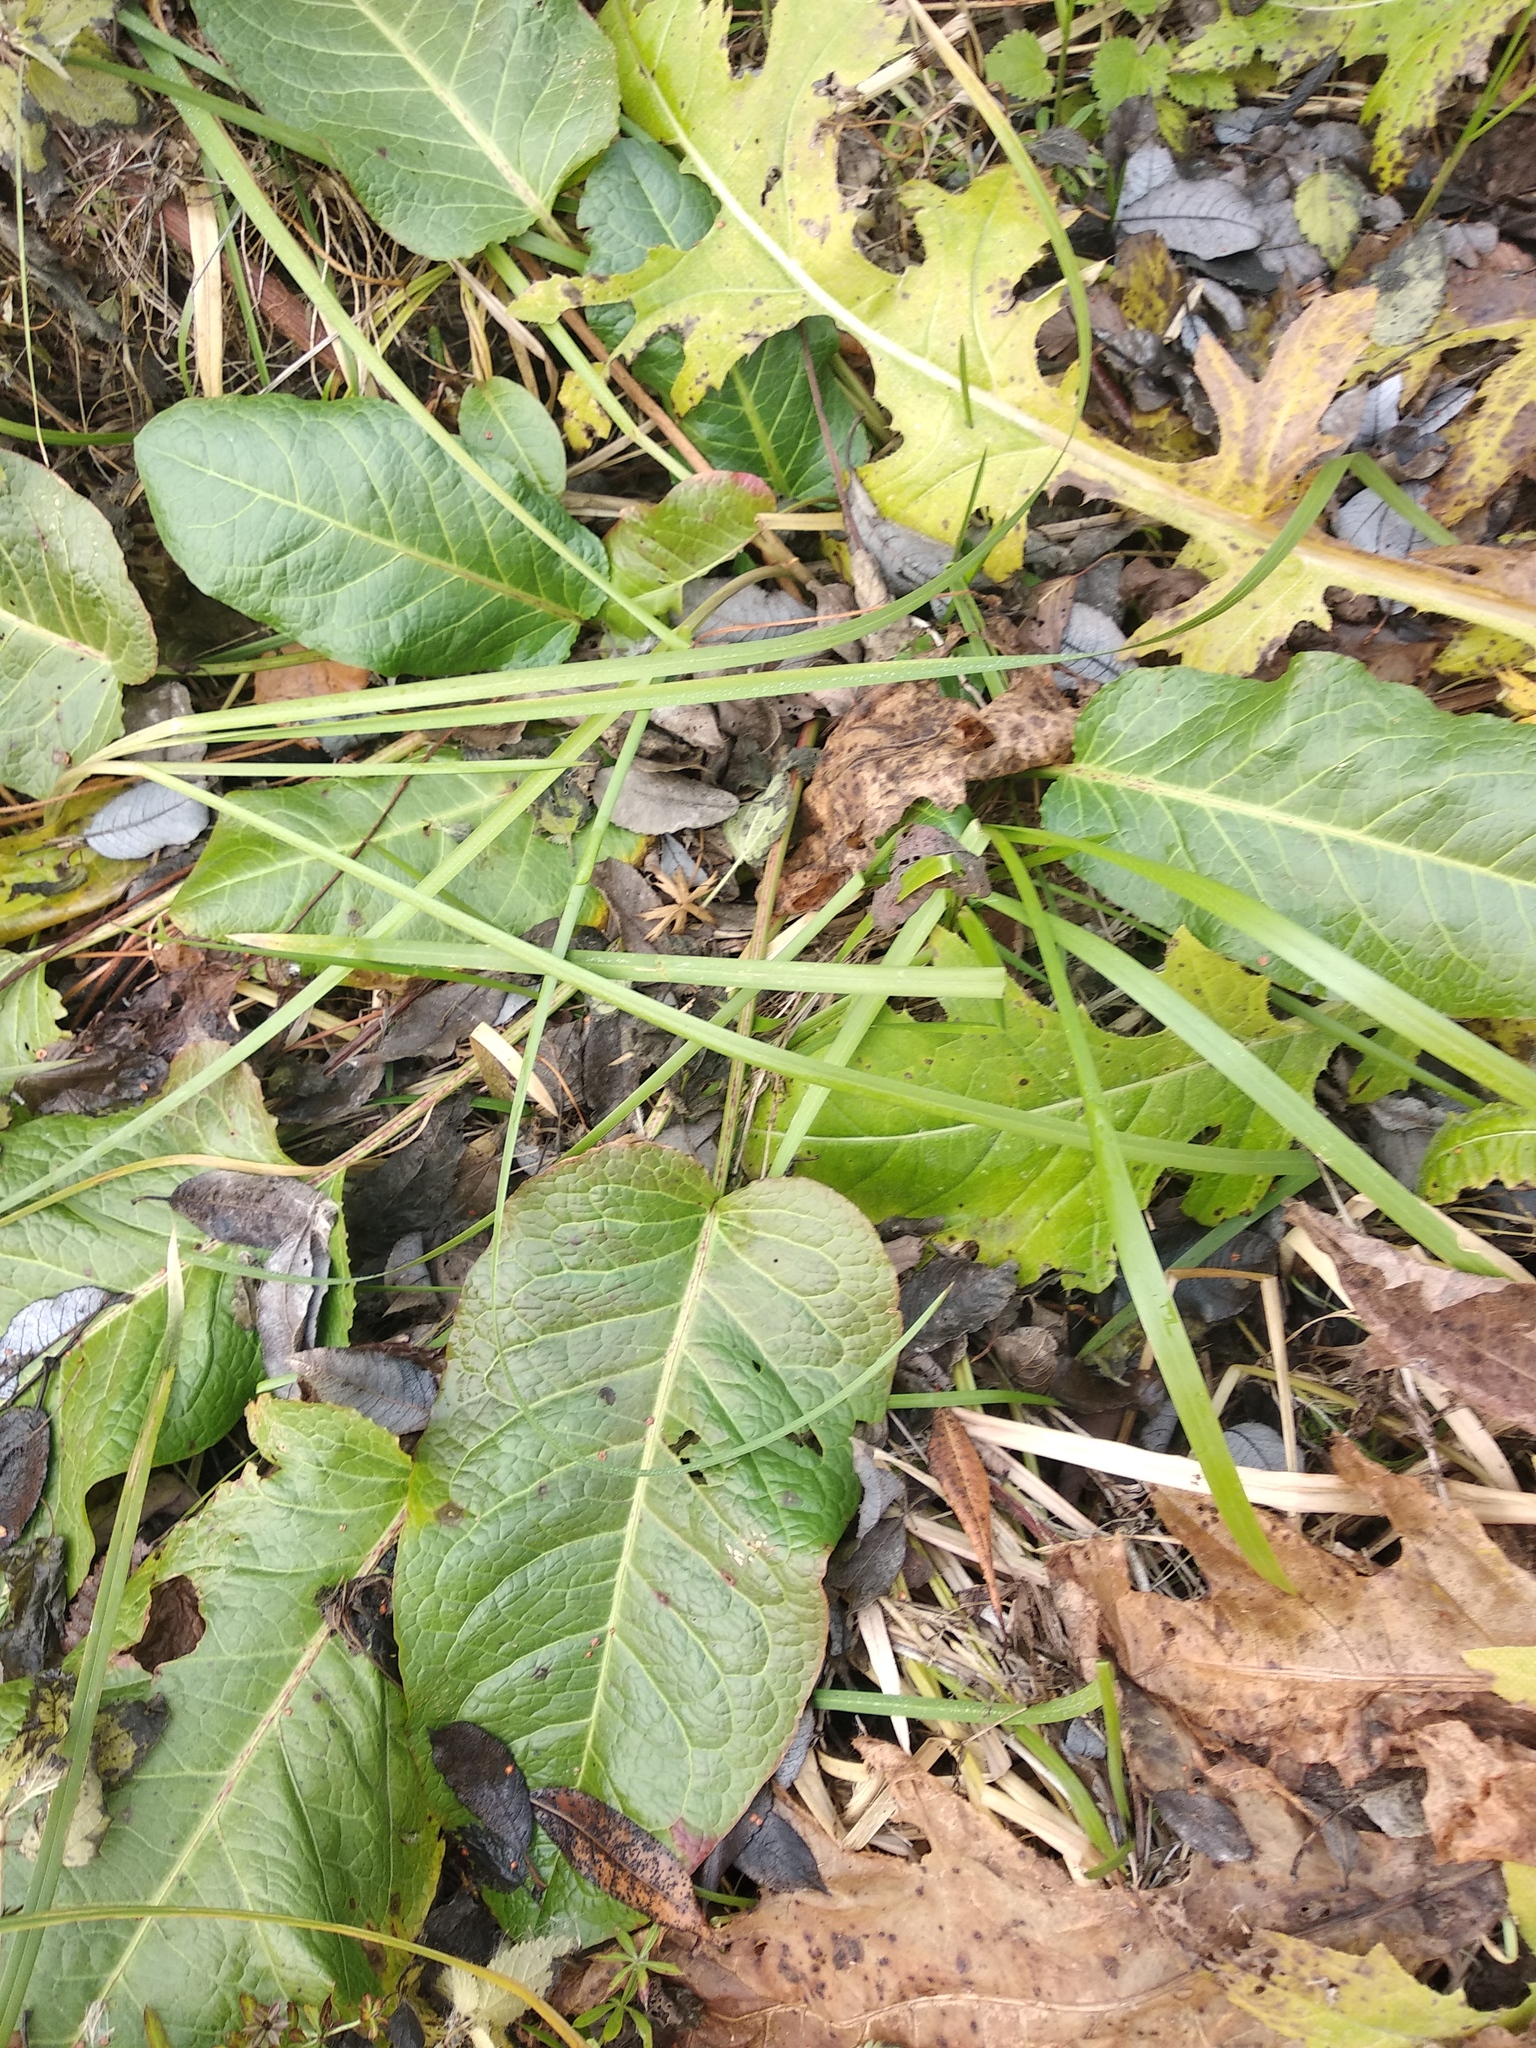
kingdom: Plantae
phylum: Tracheophyta
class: Magnoliopsida
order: Caryophyllales
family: Polygonaceae
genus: Rumex
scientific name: Rumex obtusifolius
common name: Bitter dock
